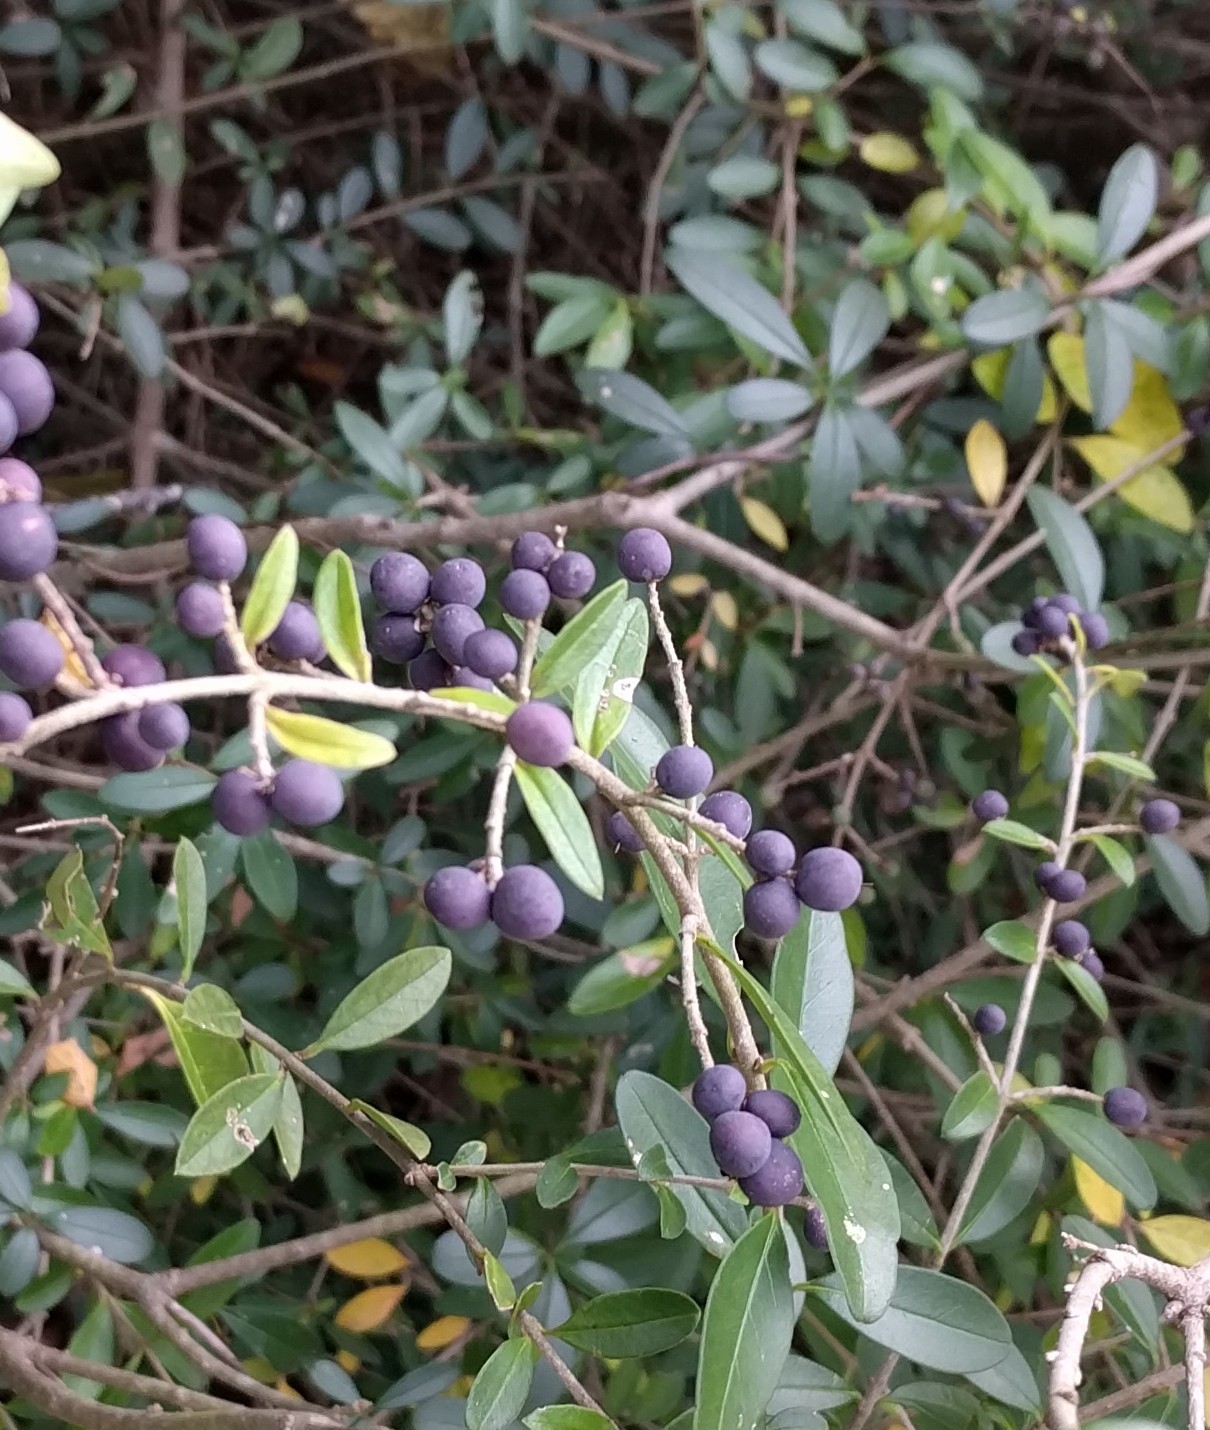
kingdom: Plantae
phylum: Tracheophyta
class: Magnoliopsida
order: Lamiales
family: Oleaceae
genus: Ligustrum
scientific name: Ligustrum quihoui
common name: Waxyleaf privet
